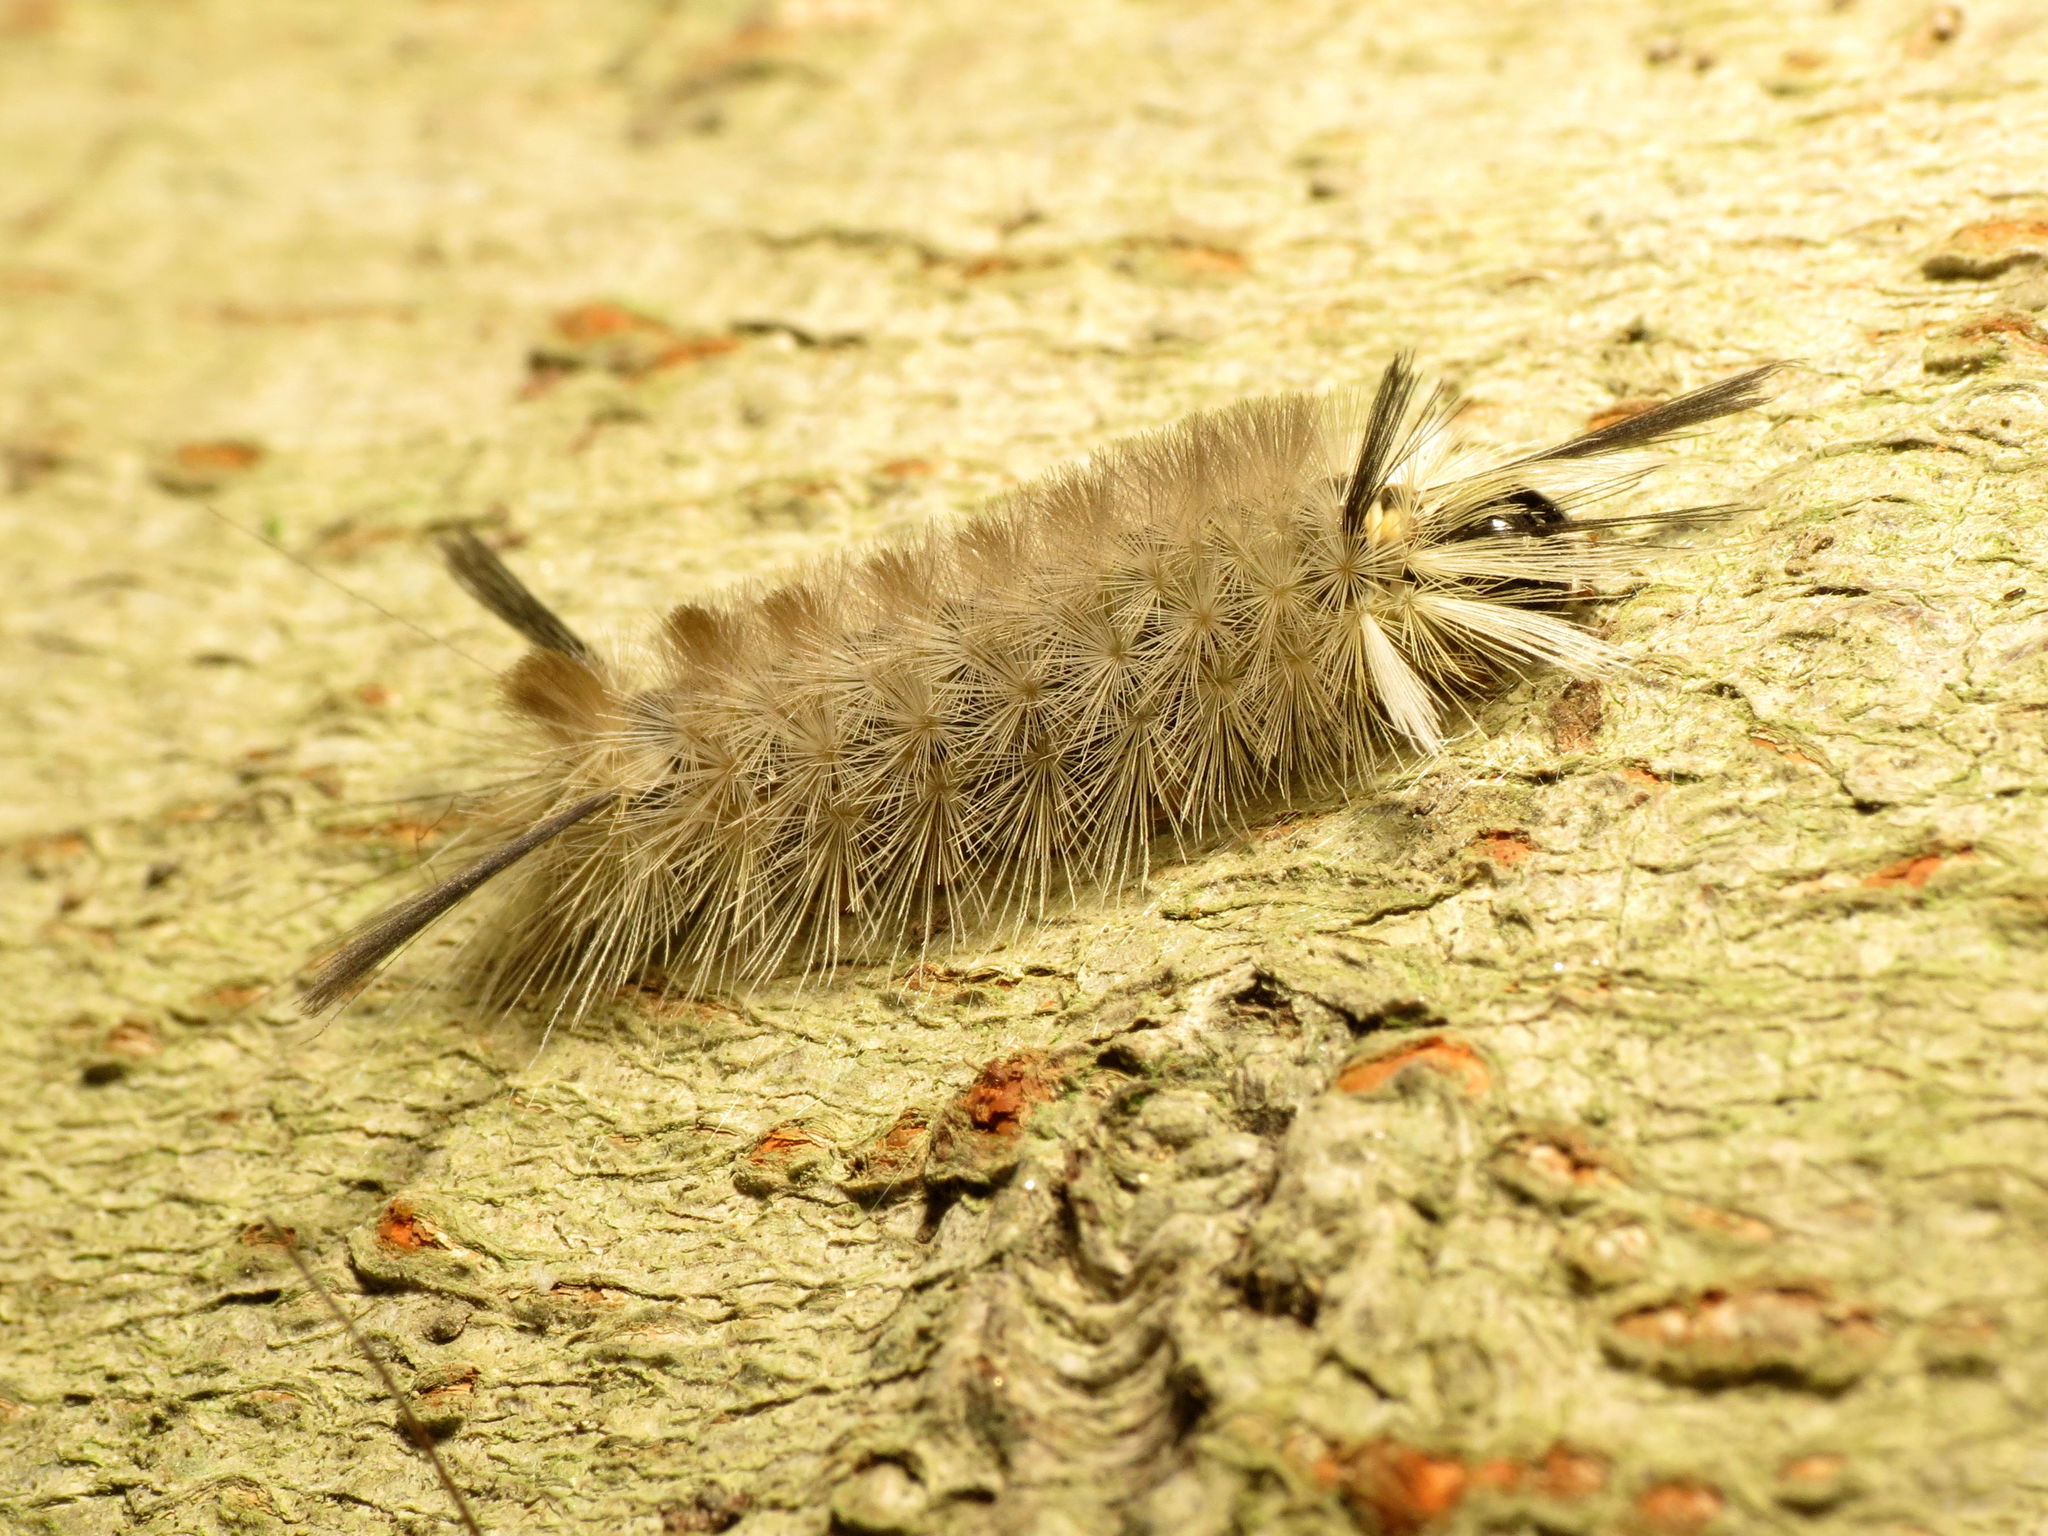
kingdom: Animalia
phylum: Arthropoda
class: Insecta
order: Lepidoptera
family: Erebidae
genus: Halysidota
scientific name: Halysidota tessellaris
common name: Banded tussock moth
